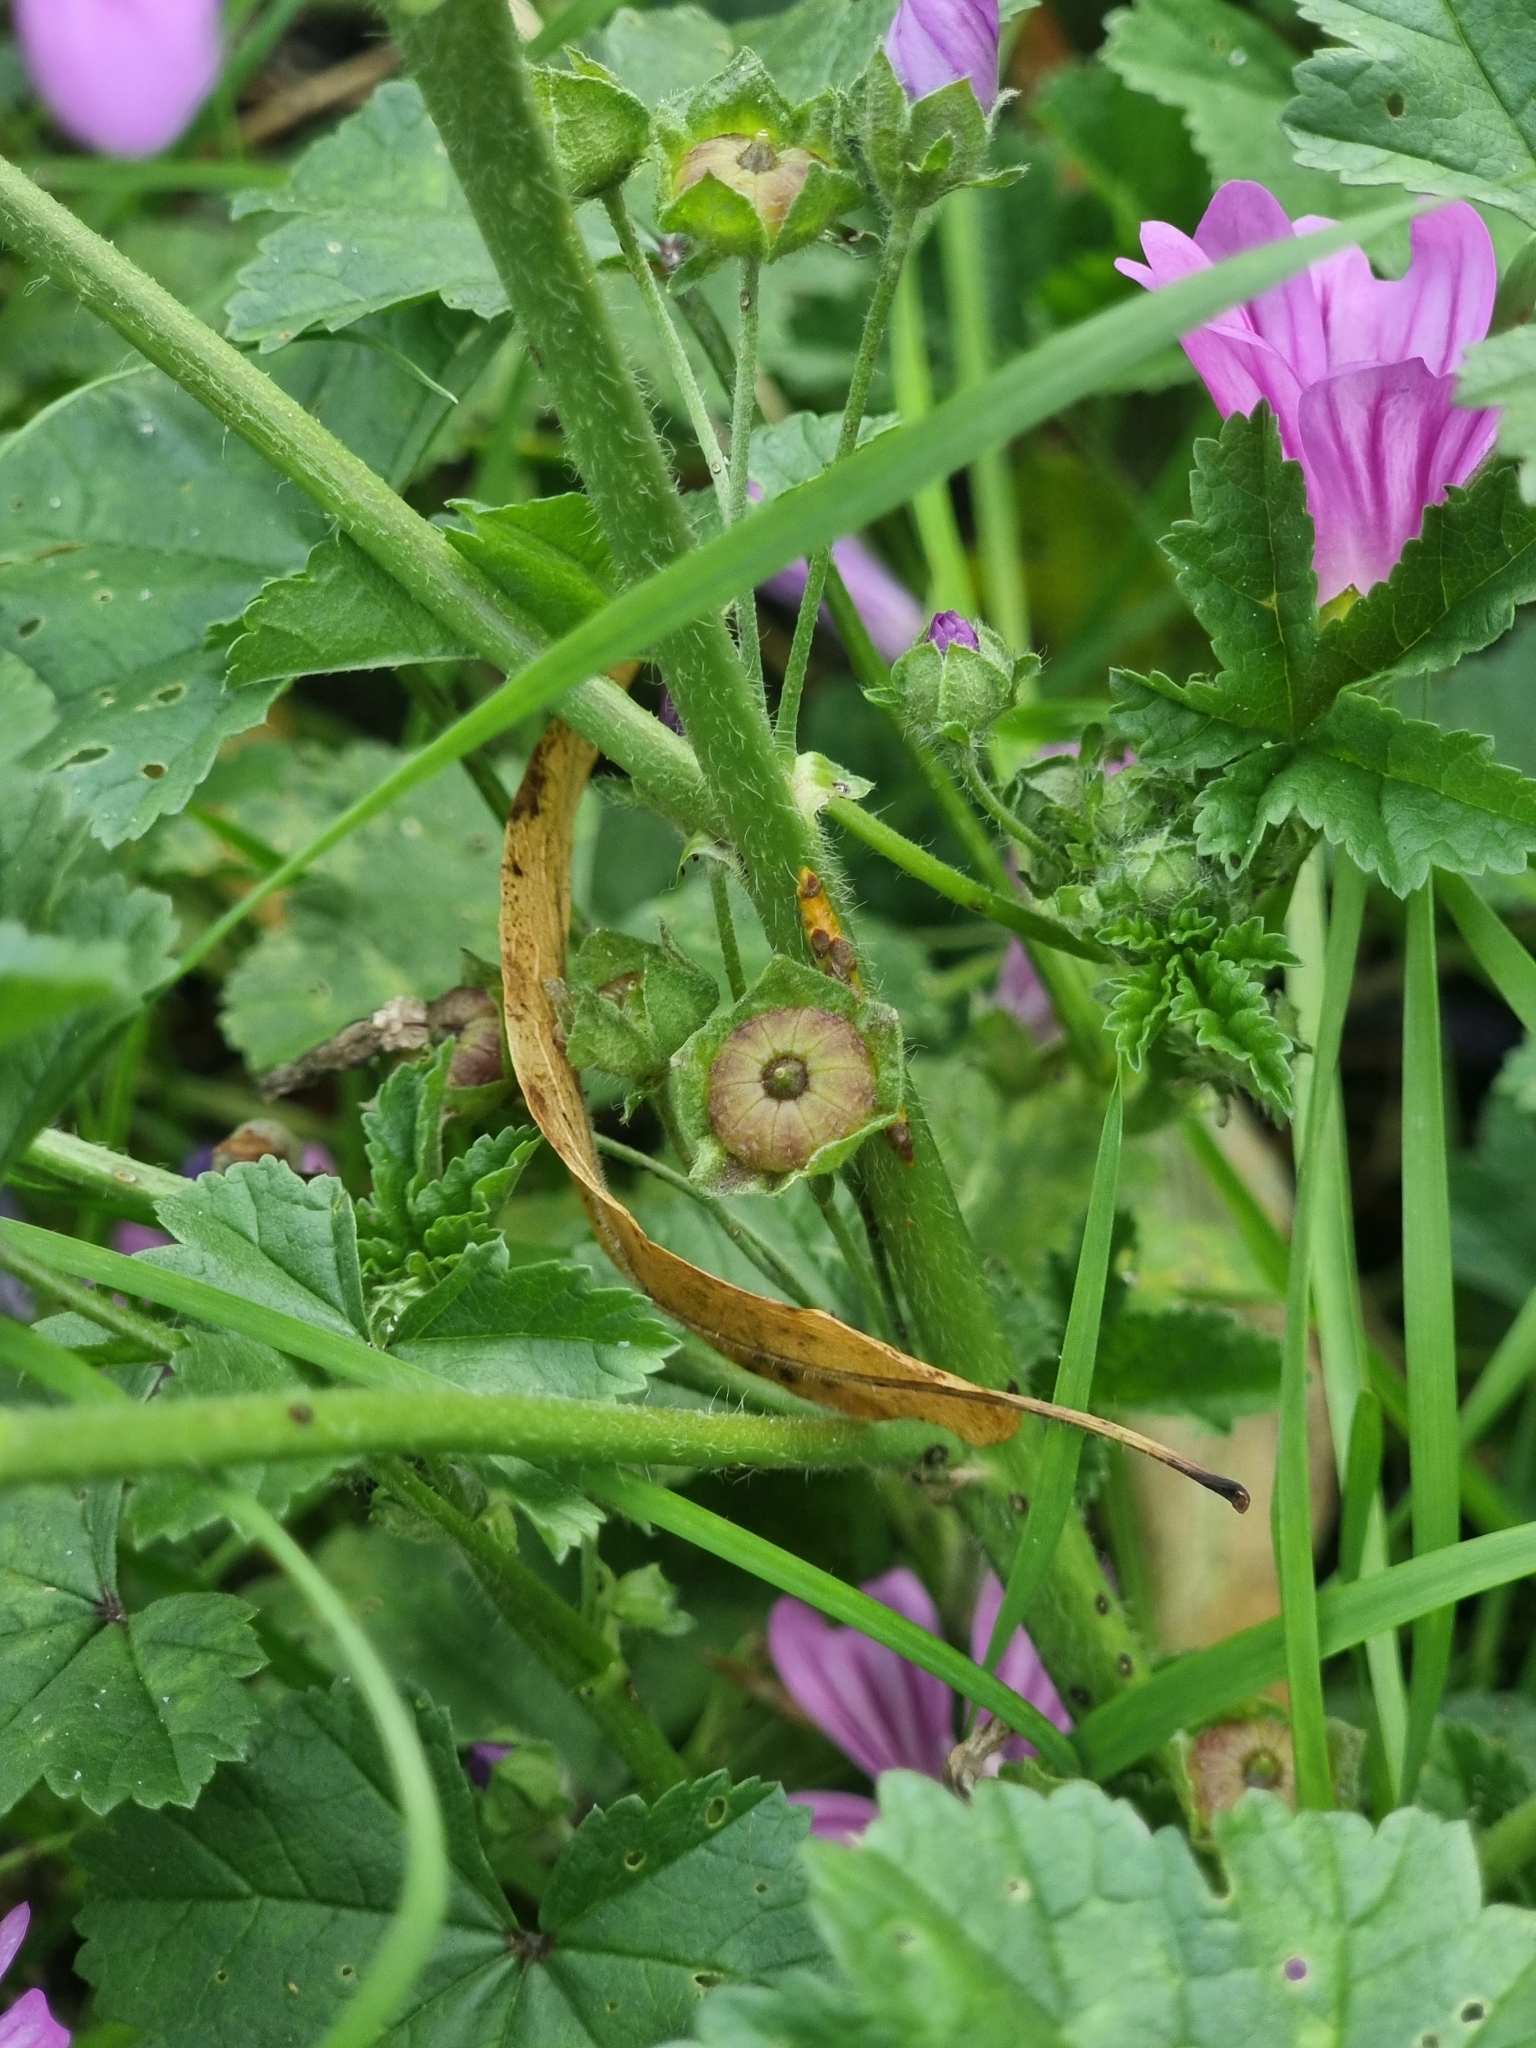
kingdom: Fungi
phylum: Basidiomycota
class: Pucciniomycetes
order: Pucciniales
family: Pucciniaceae
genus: Puccinia
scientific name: Puccinia malvacearum
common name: Hollyhock rust
